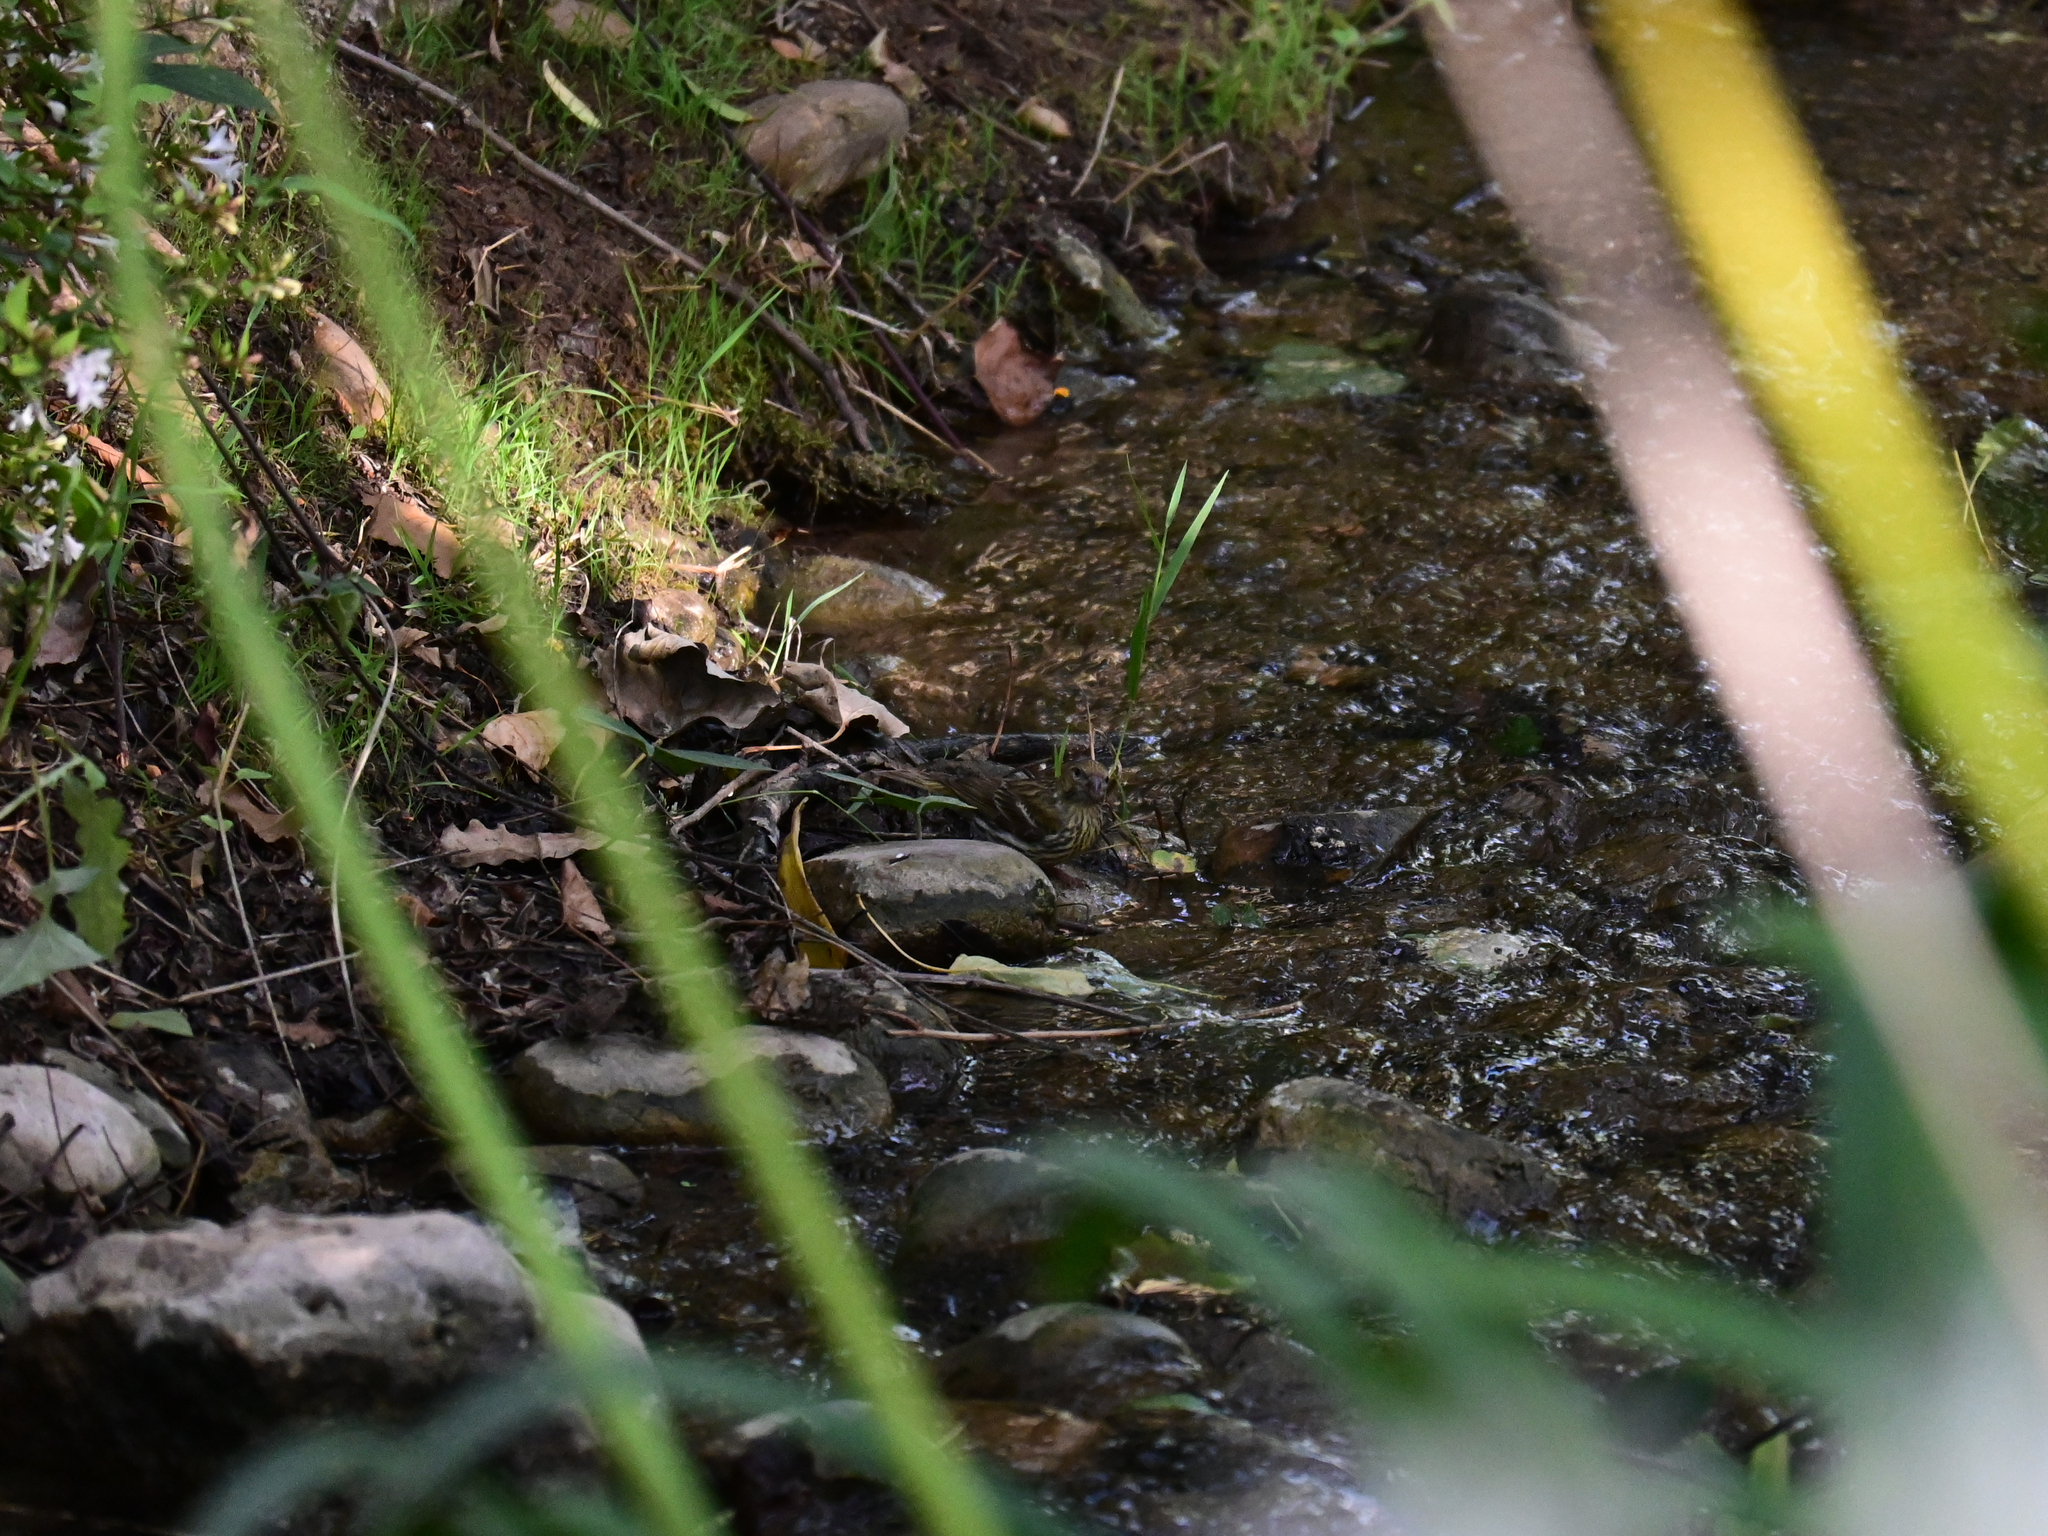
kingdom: Animalia
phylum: Chordata
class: Aves
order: Passeriformes
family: Fringillidae
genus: Serinus
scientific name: Serinus serinus
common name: European serin
